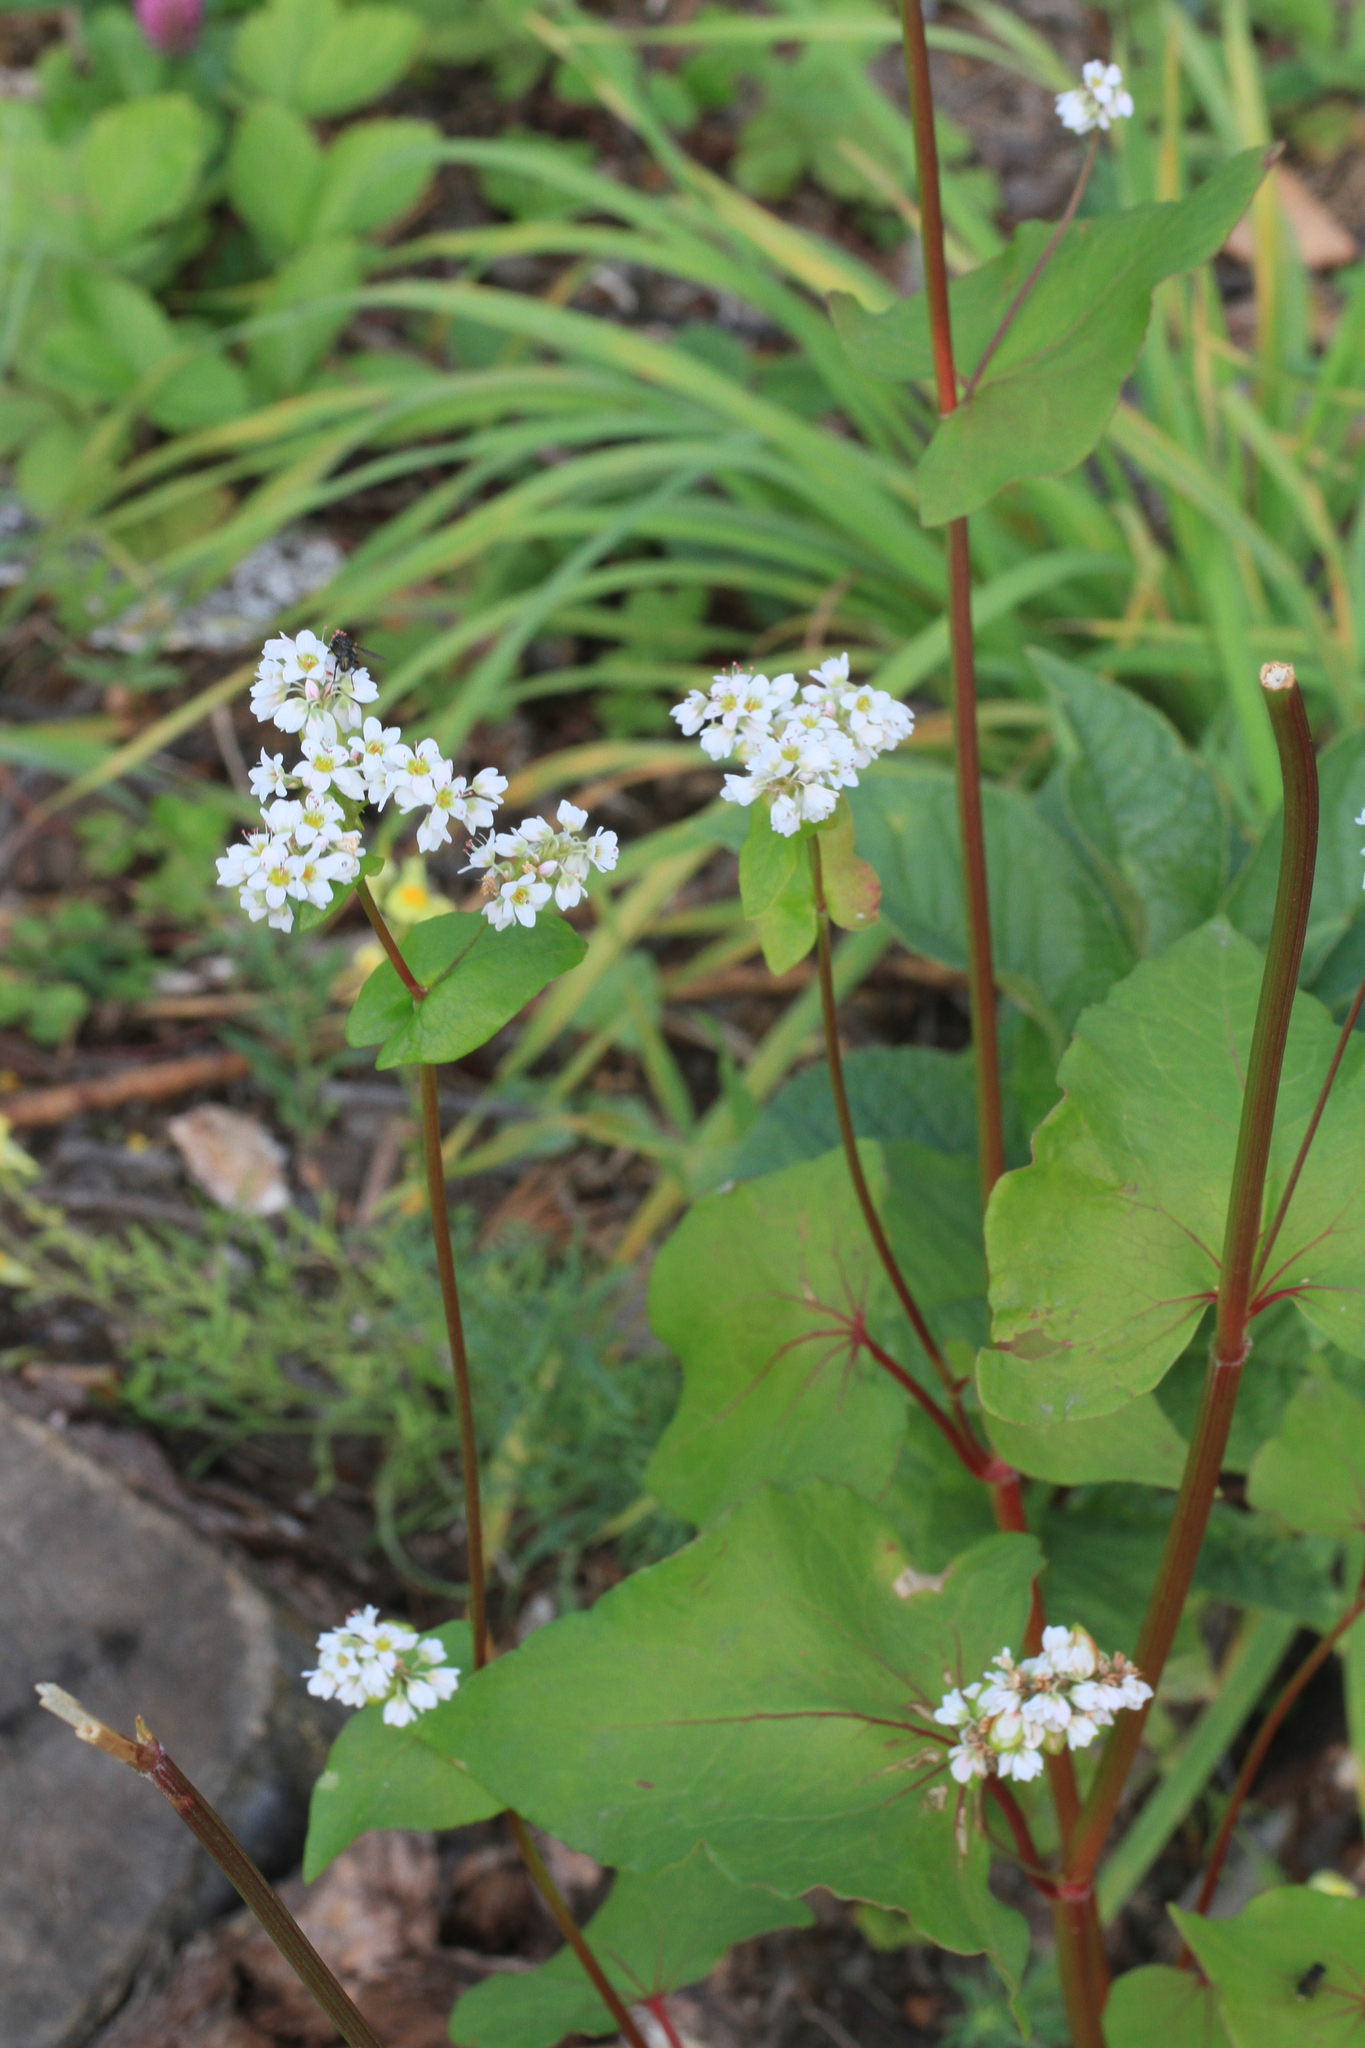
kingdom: Plantae
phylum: Tracheophyta
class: Magnoliopsida
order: Caryophyllales
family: Polygonaceae
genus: Fagopyrum
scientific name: Fagopyrum esculentum
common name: Buckwheat
